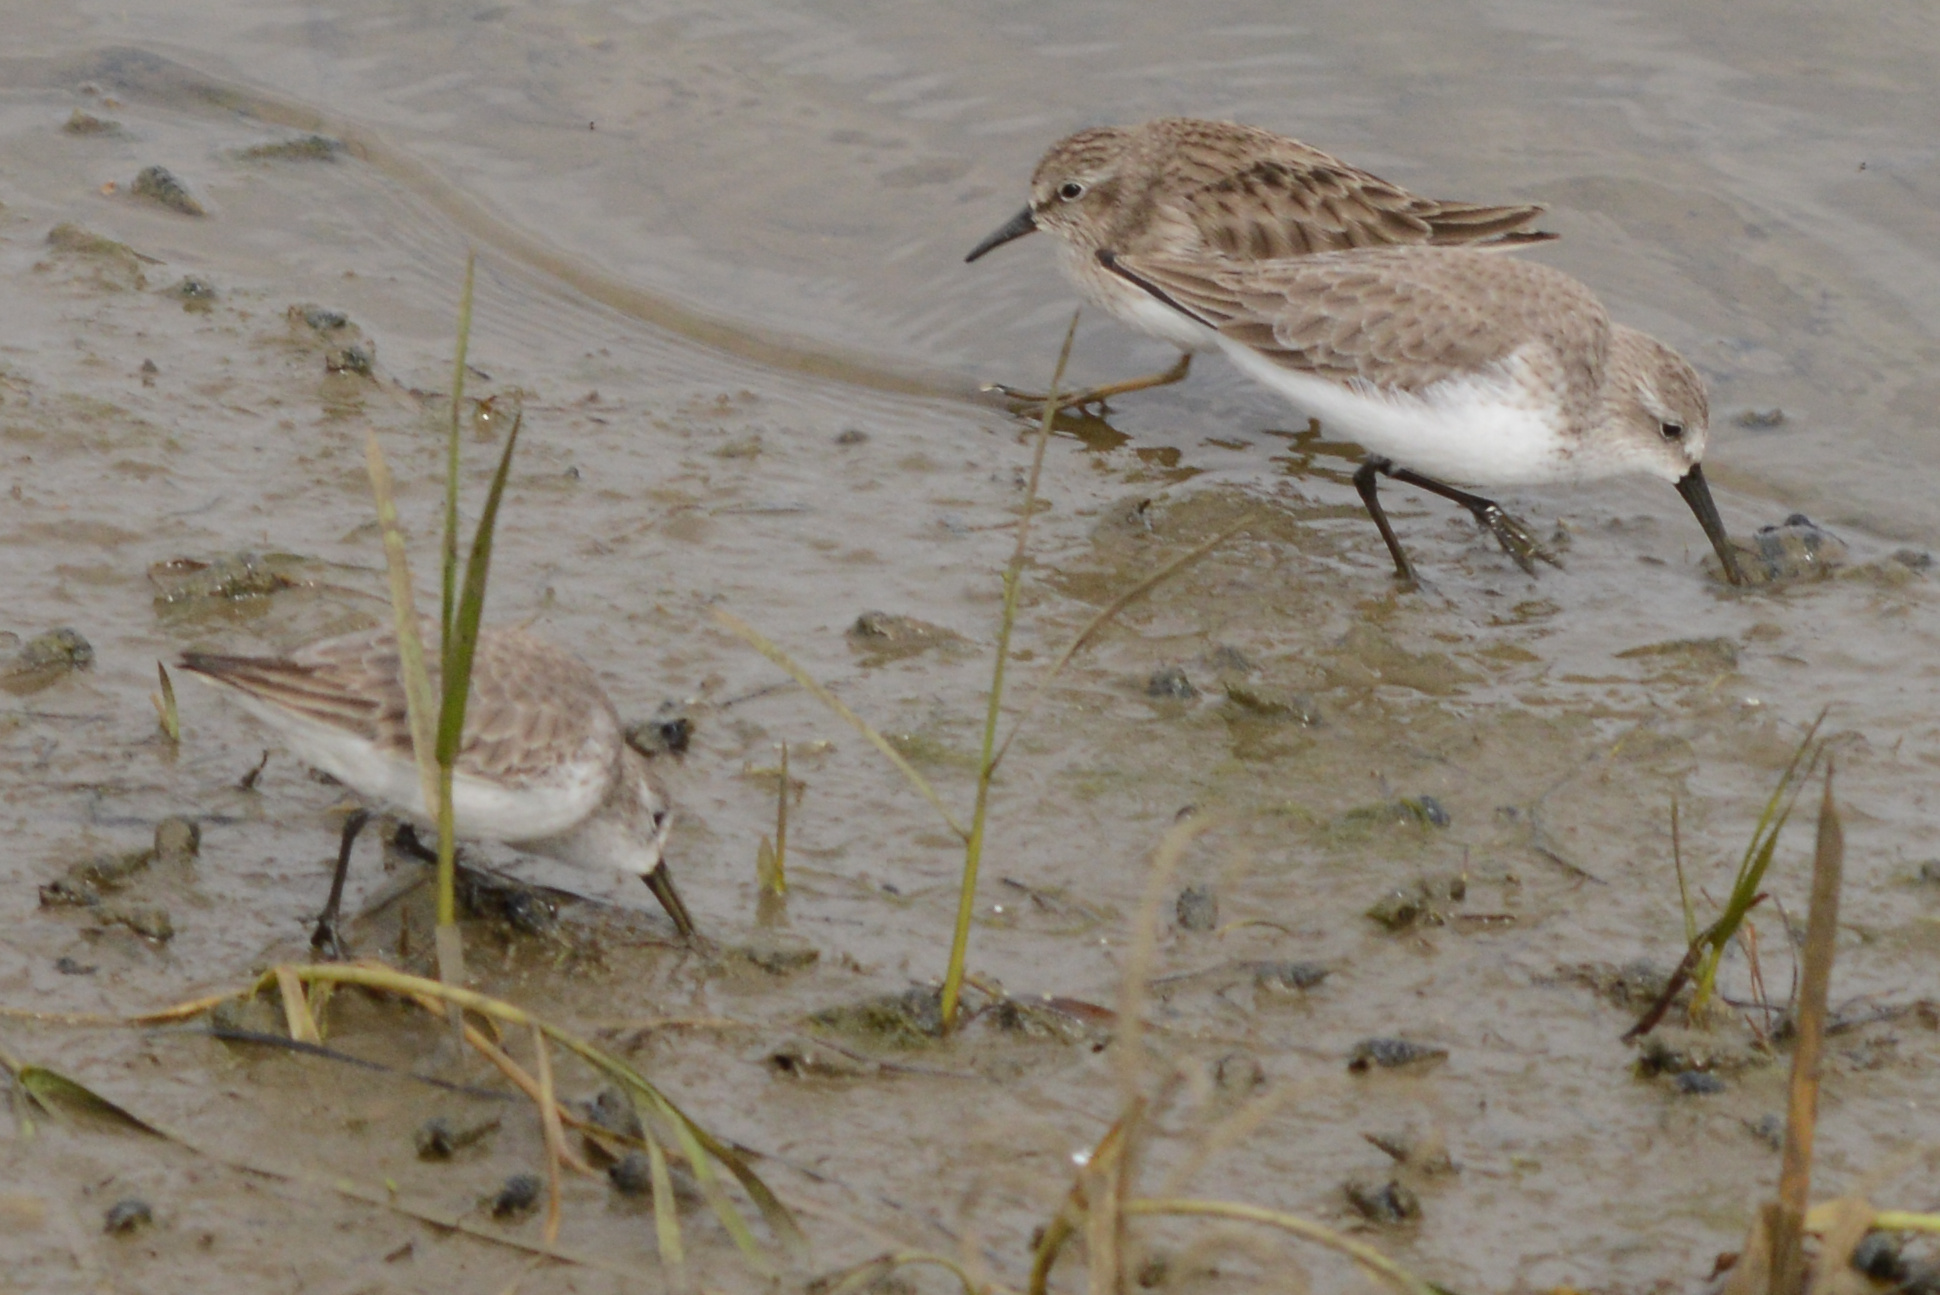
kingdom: Animalia
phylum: Chordata
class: Aves
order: Charadriiformes
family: Scolopacidae
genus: Calidris
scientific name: Calidris mauri
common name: Western sandpiper
